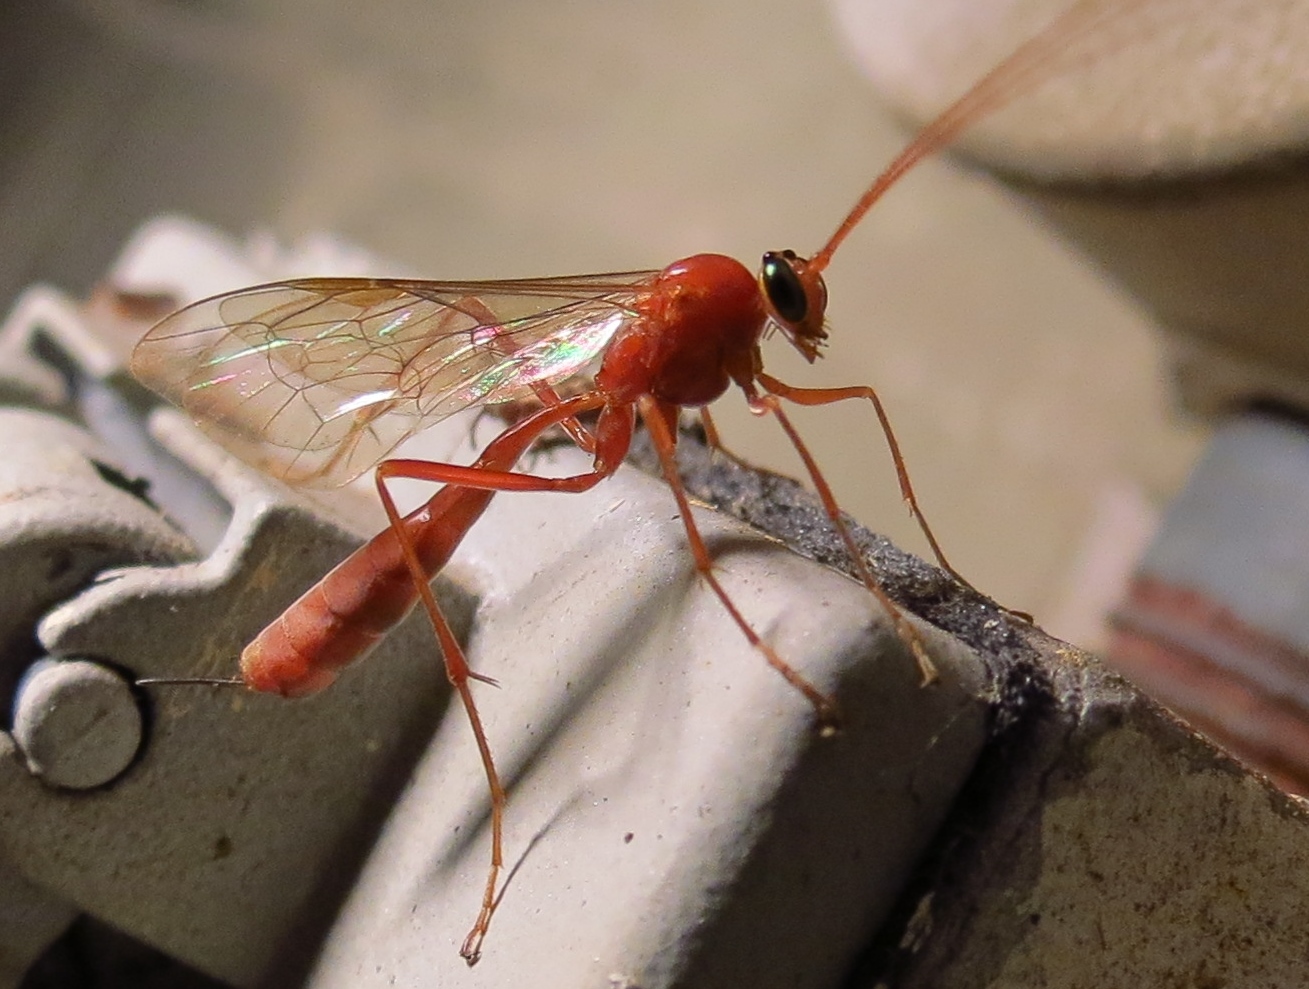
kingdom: Animalia
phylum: Arthropoda
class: Insecta
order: Hymenoptera
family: Ichneumonidae
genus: Netelia
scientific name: Netelia
